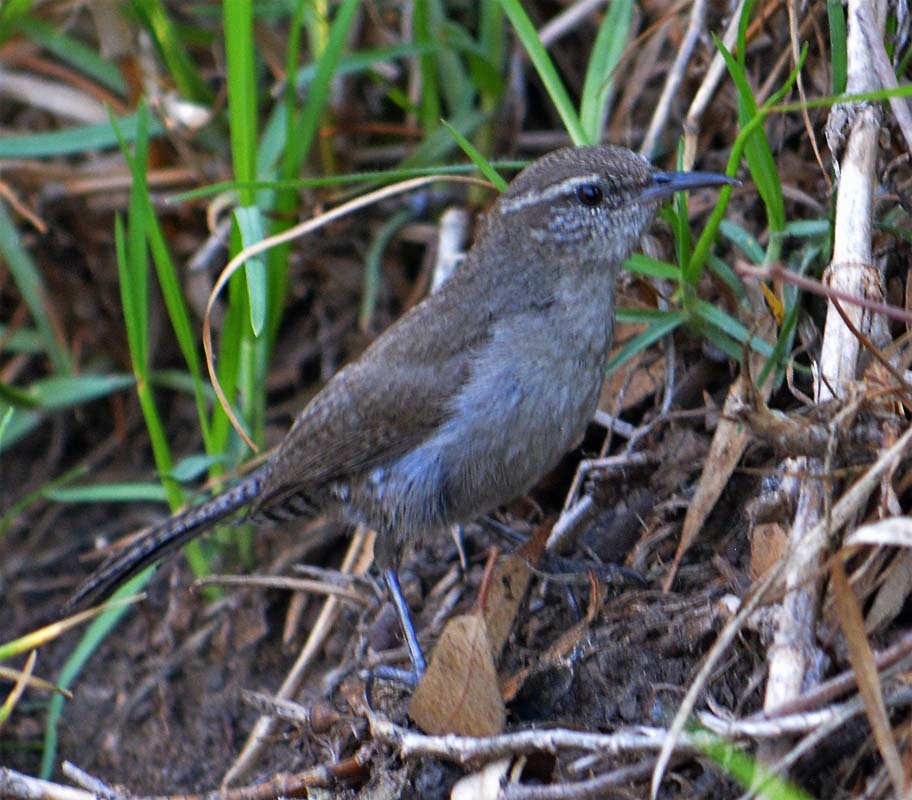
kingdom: Animalia
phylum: Chordata
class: Aves
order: Passeriformes
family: Troglodytidae
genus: Thryomanes
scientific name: Thryomanes bewickii
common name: Bewick's wren
